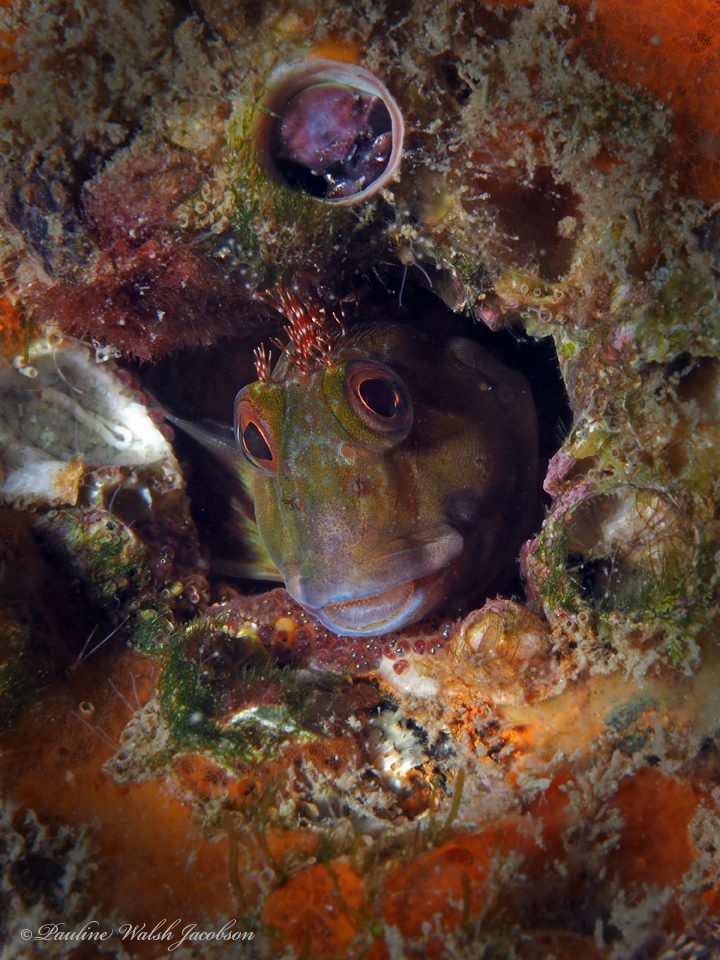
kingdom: Animalia
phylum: Chordata
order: Perciformes
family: Blenniidae
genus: Scartella
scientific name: Scartella cristata
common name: Molly miller
